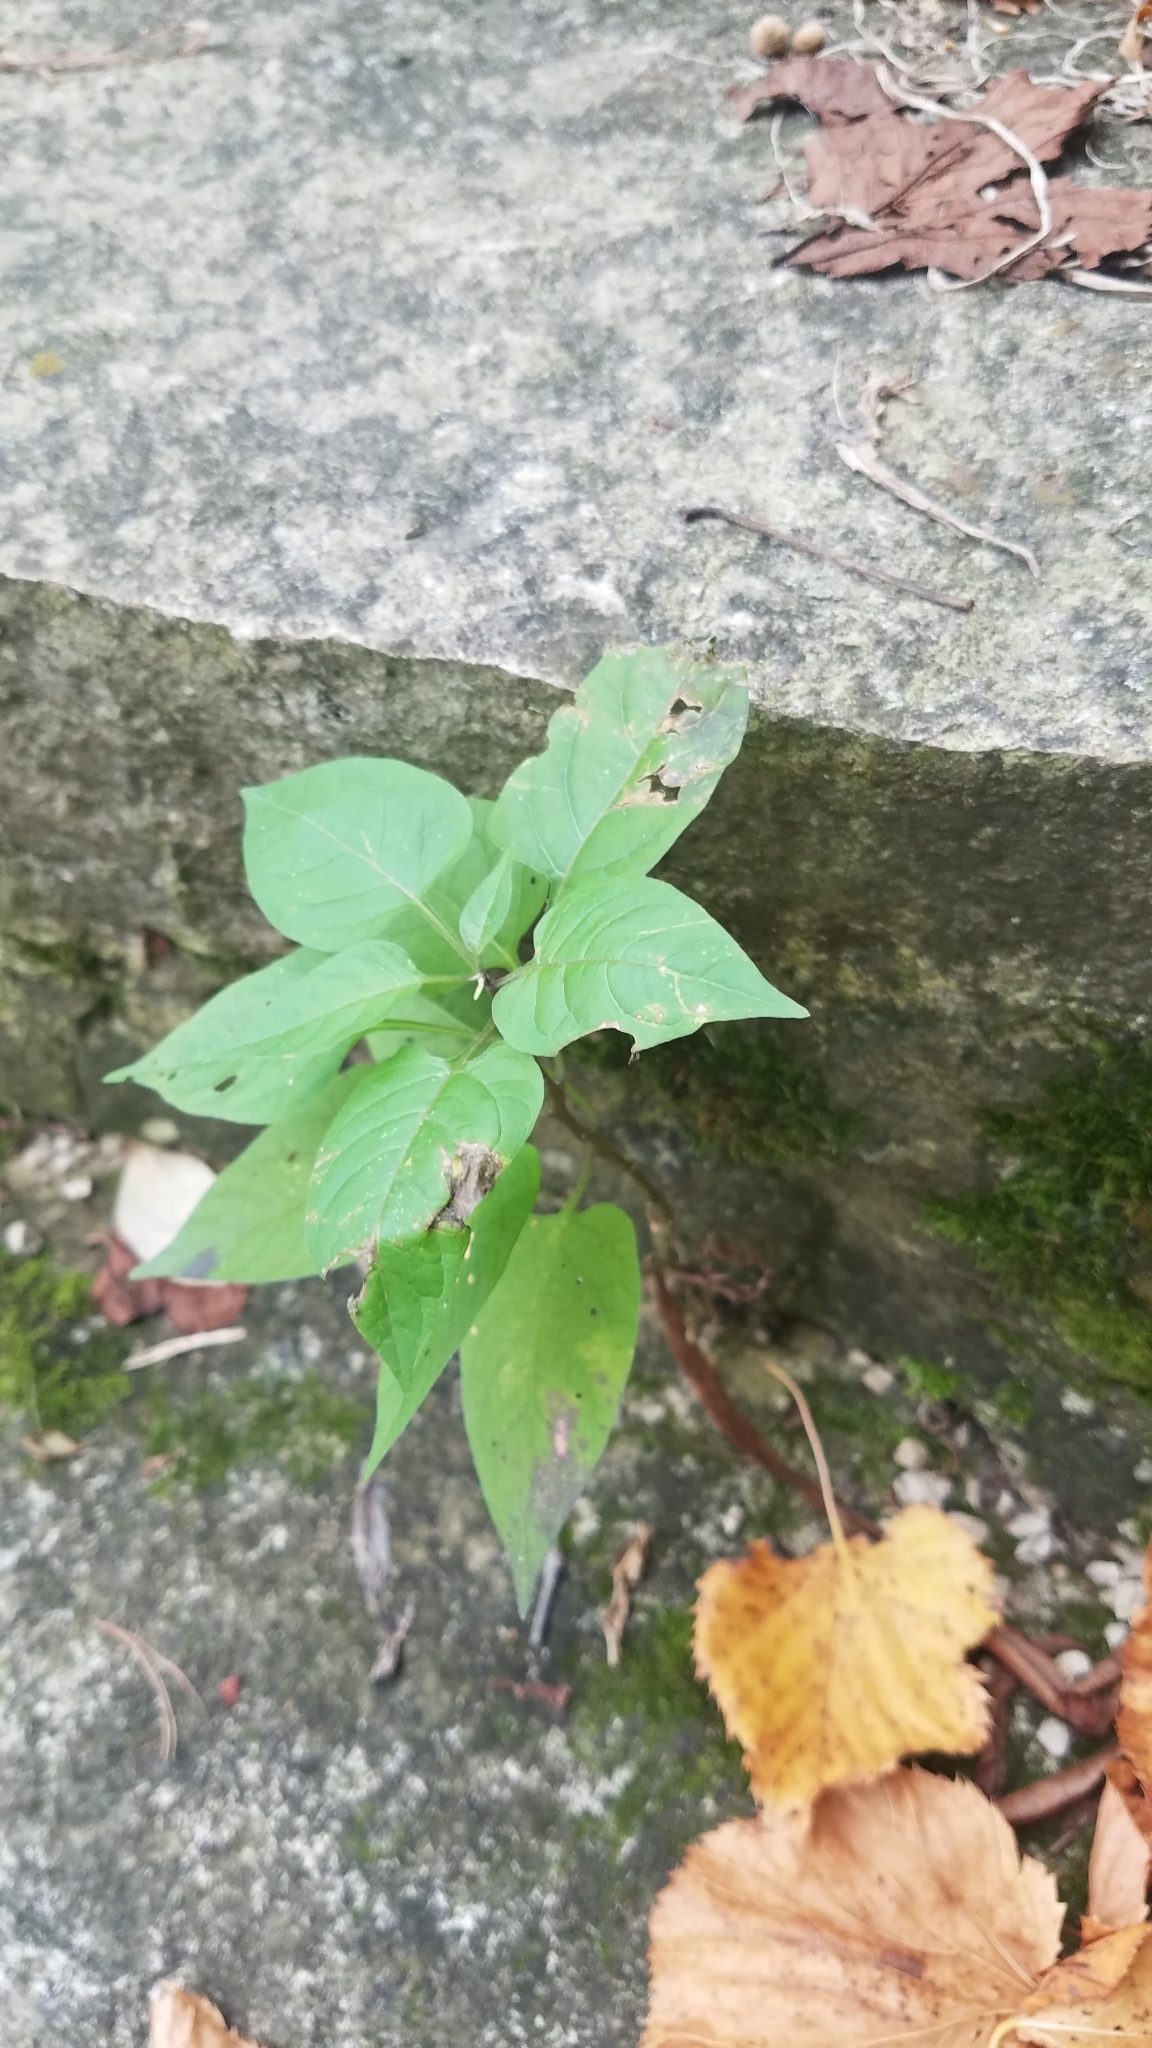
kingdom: Plantae
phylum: Tracheophyta
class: Magnoliopsida
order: Solanales
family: Solanaceae
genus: Solanum
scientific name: Solanum dulcamara
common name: Climbing nightshade
